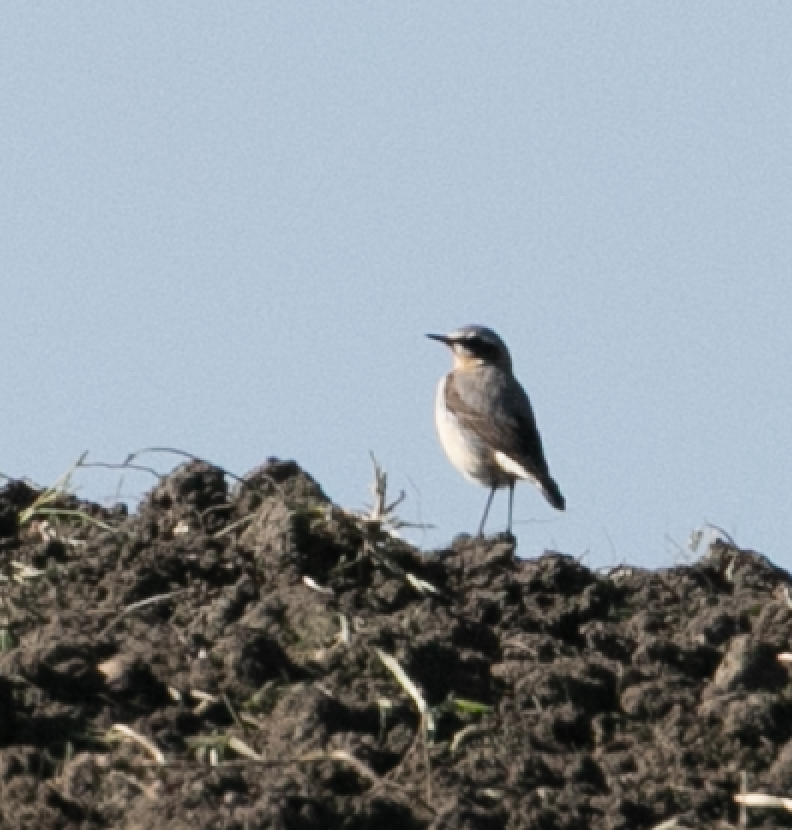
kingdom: Animalia
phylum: Chordata
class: Aves
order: Passeriformes
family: Muscicapidae
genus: Oenanthe
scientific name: Oenanthe oenanthe
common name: Northern wheatear
